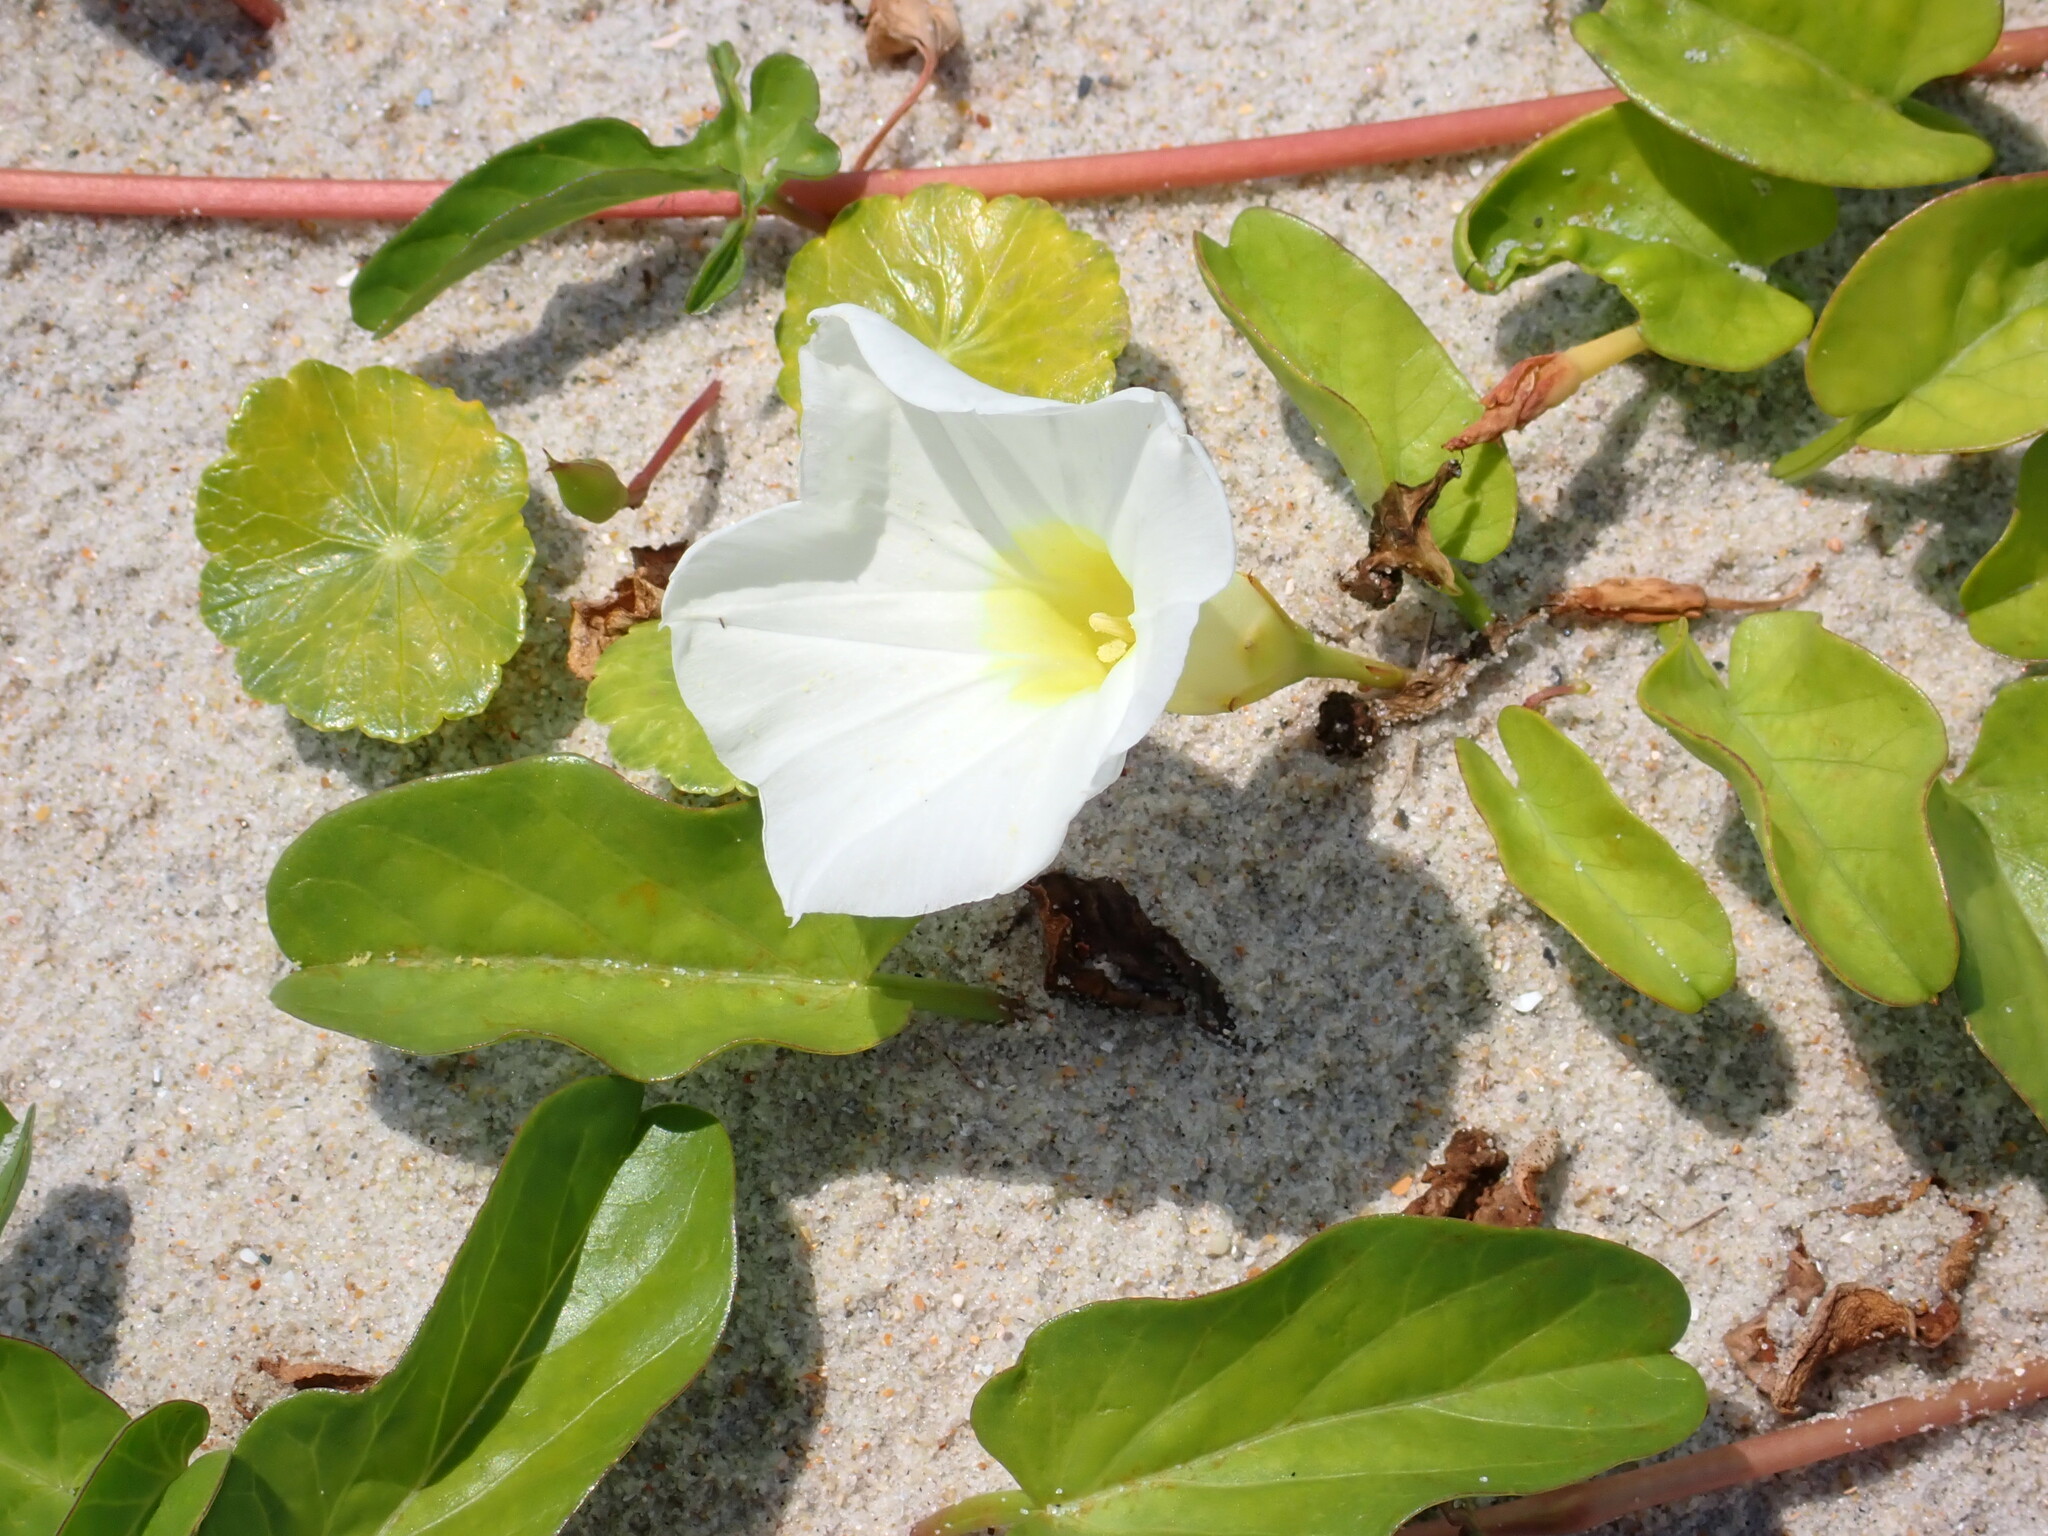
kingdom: Plantae
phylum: Tracheophyta
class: Magnoliopsida
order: Solanales
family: Convolvulaceae
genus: Ipomoea
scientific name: Ipomoea imperati
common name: Fiddle-leaf morning-glory
